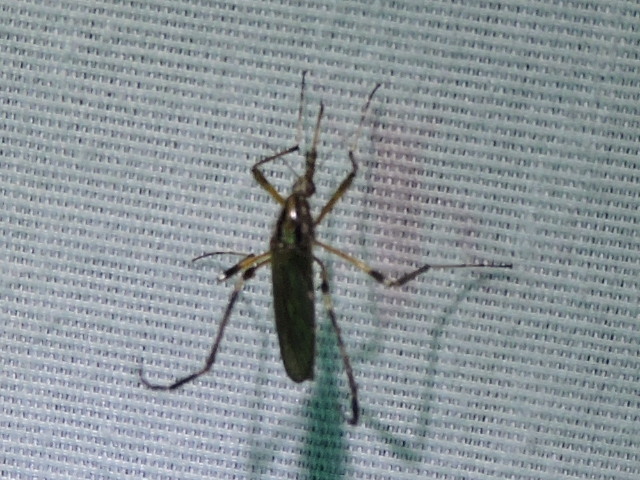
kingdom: Animalia
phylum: Arthropoda
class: Insecta
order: Diptera
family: Culicidae
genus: Psorophora
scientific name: Psorophora ciliata
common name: Gallinipper
